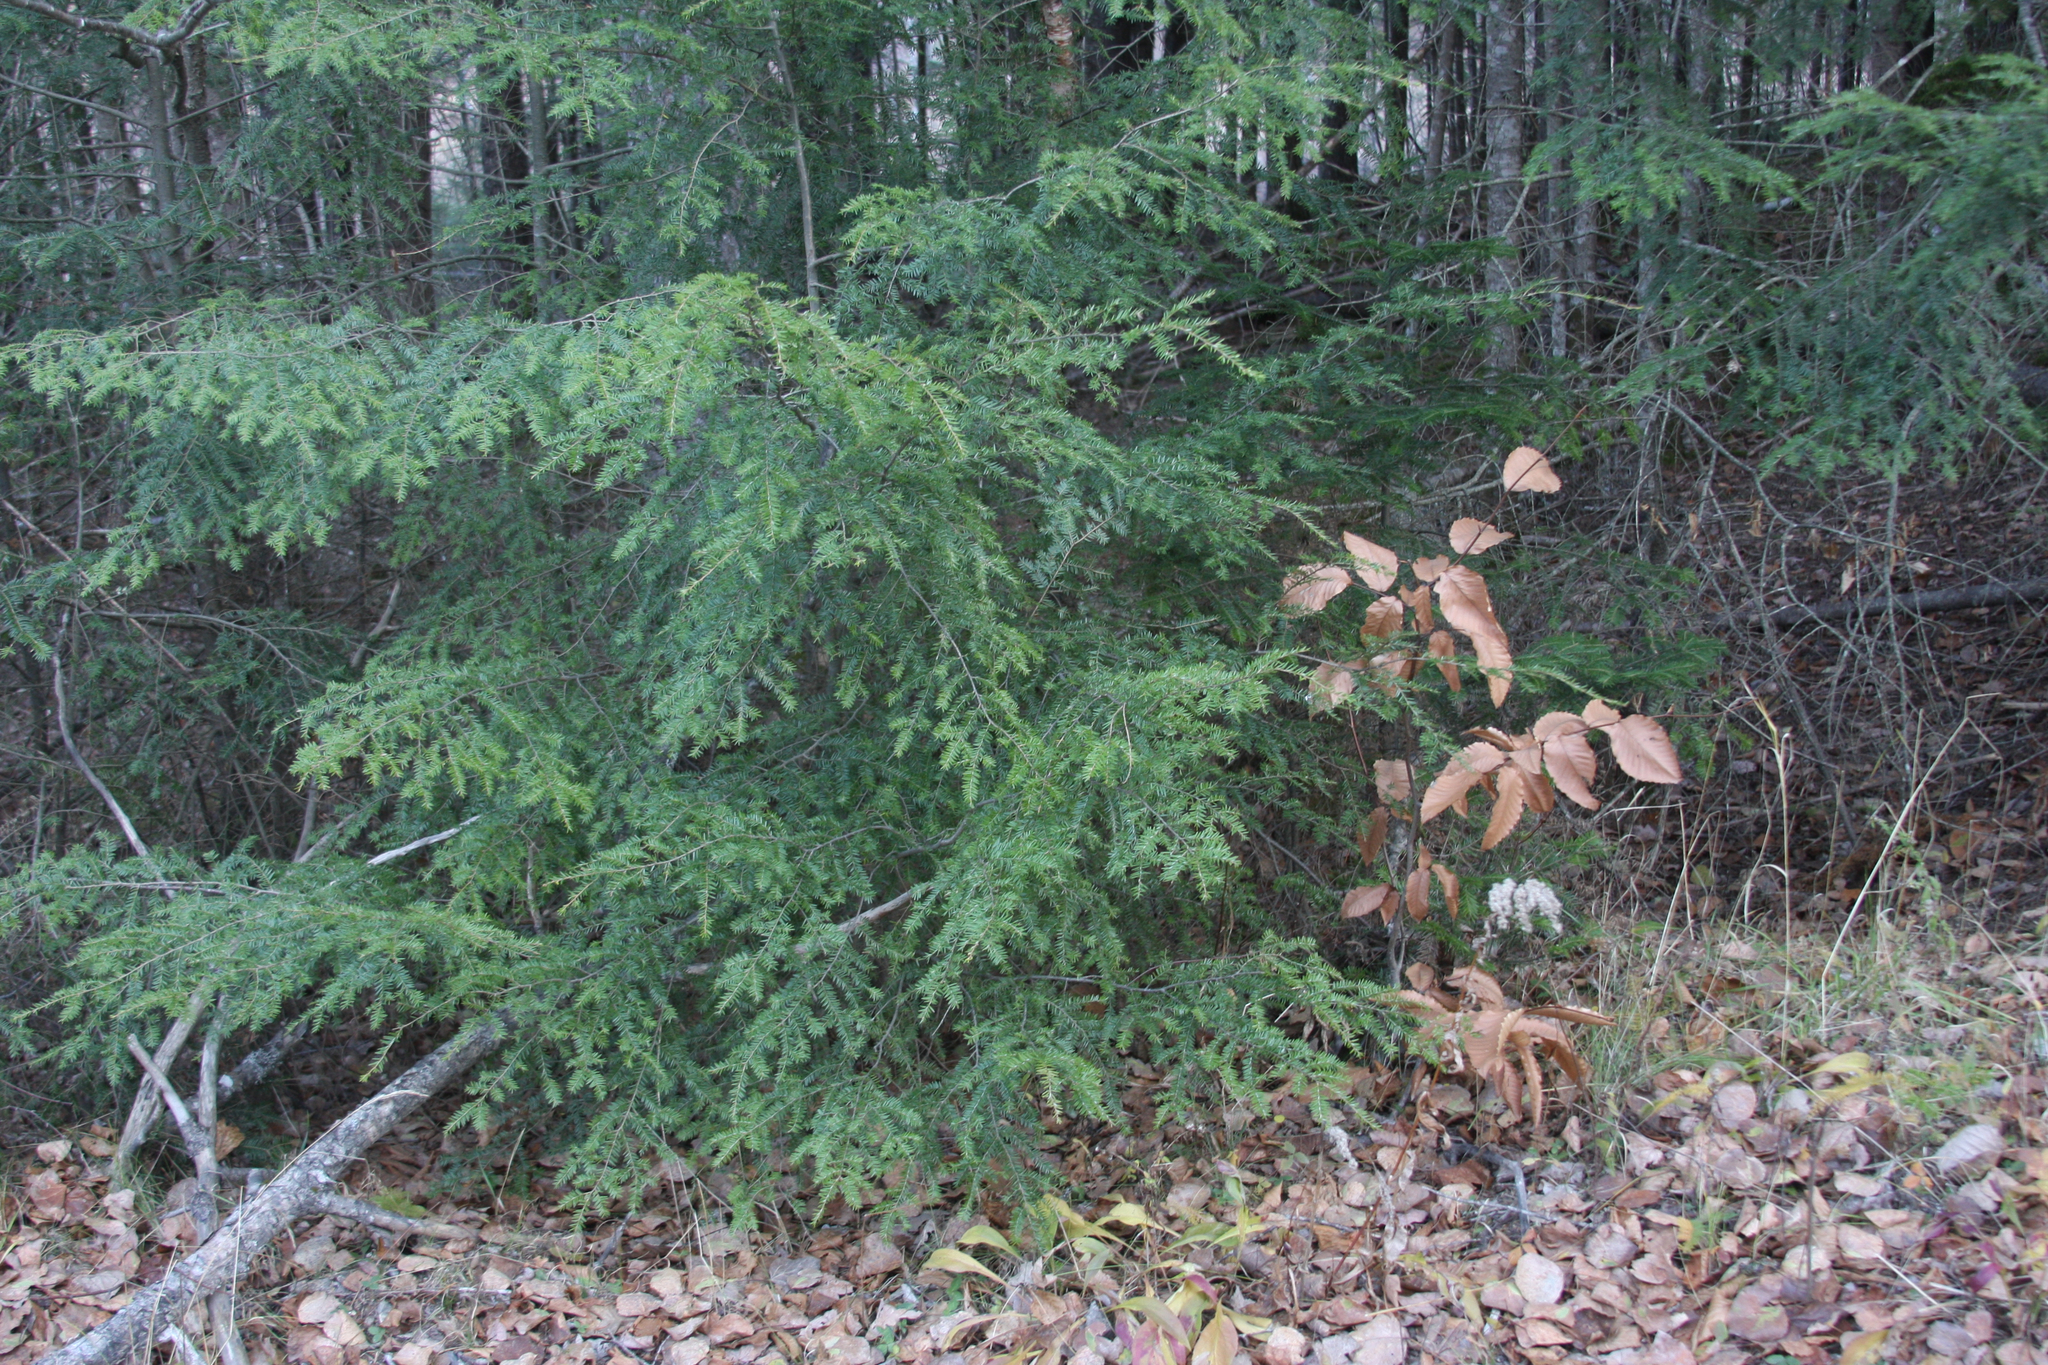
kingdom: Plantae
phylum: Tracheophyta
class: Pinopsida
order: Pinales
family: Pinaceae
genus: Tsuga
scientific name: Tsuga canadensis
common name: Eastern hemlock
